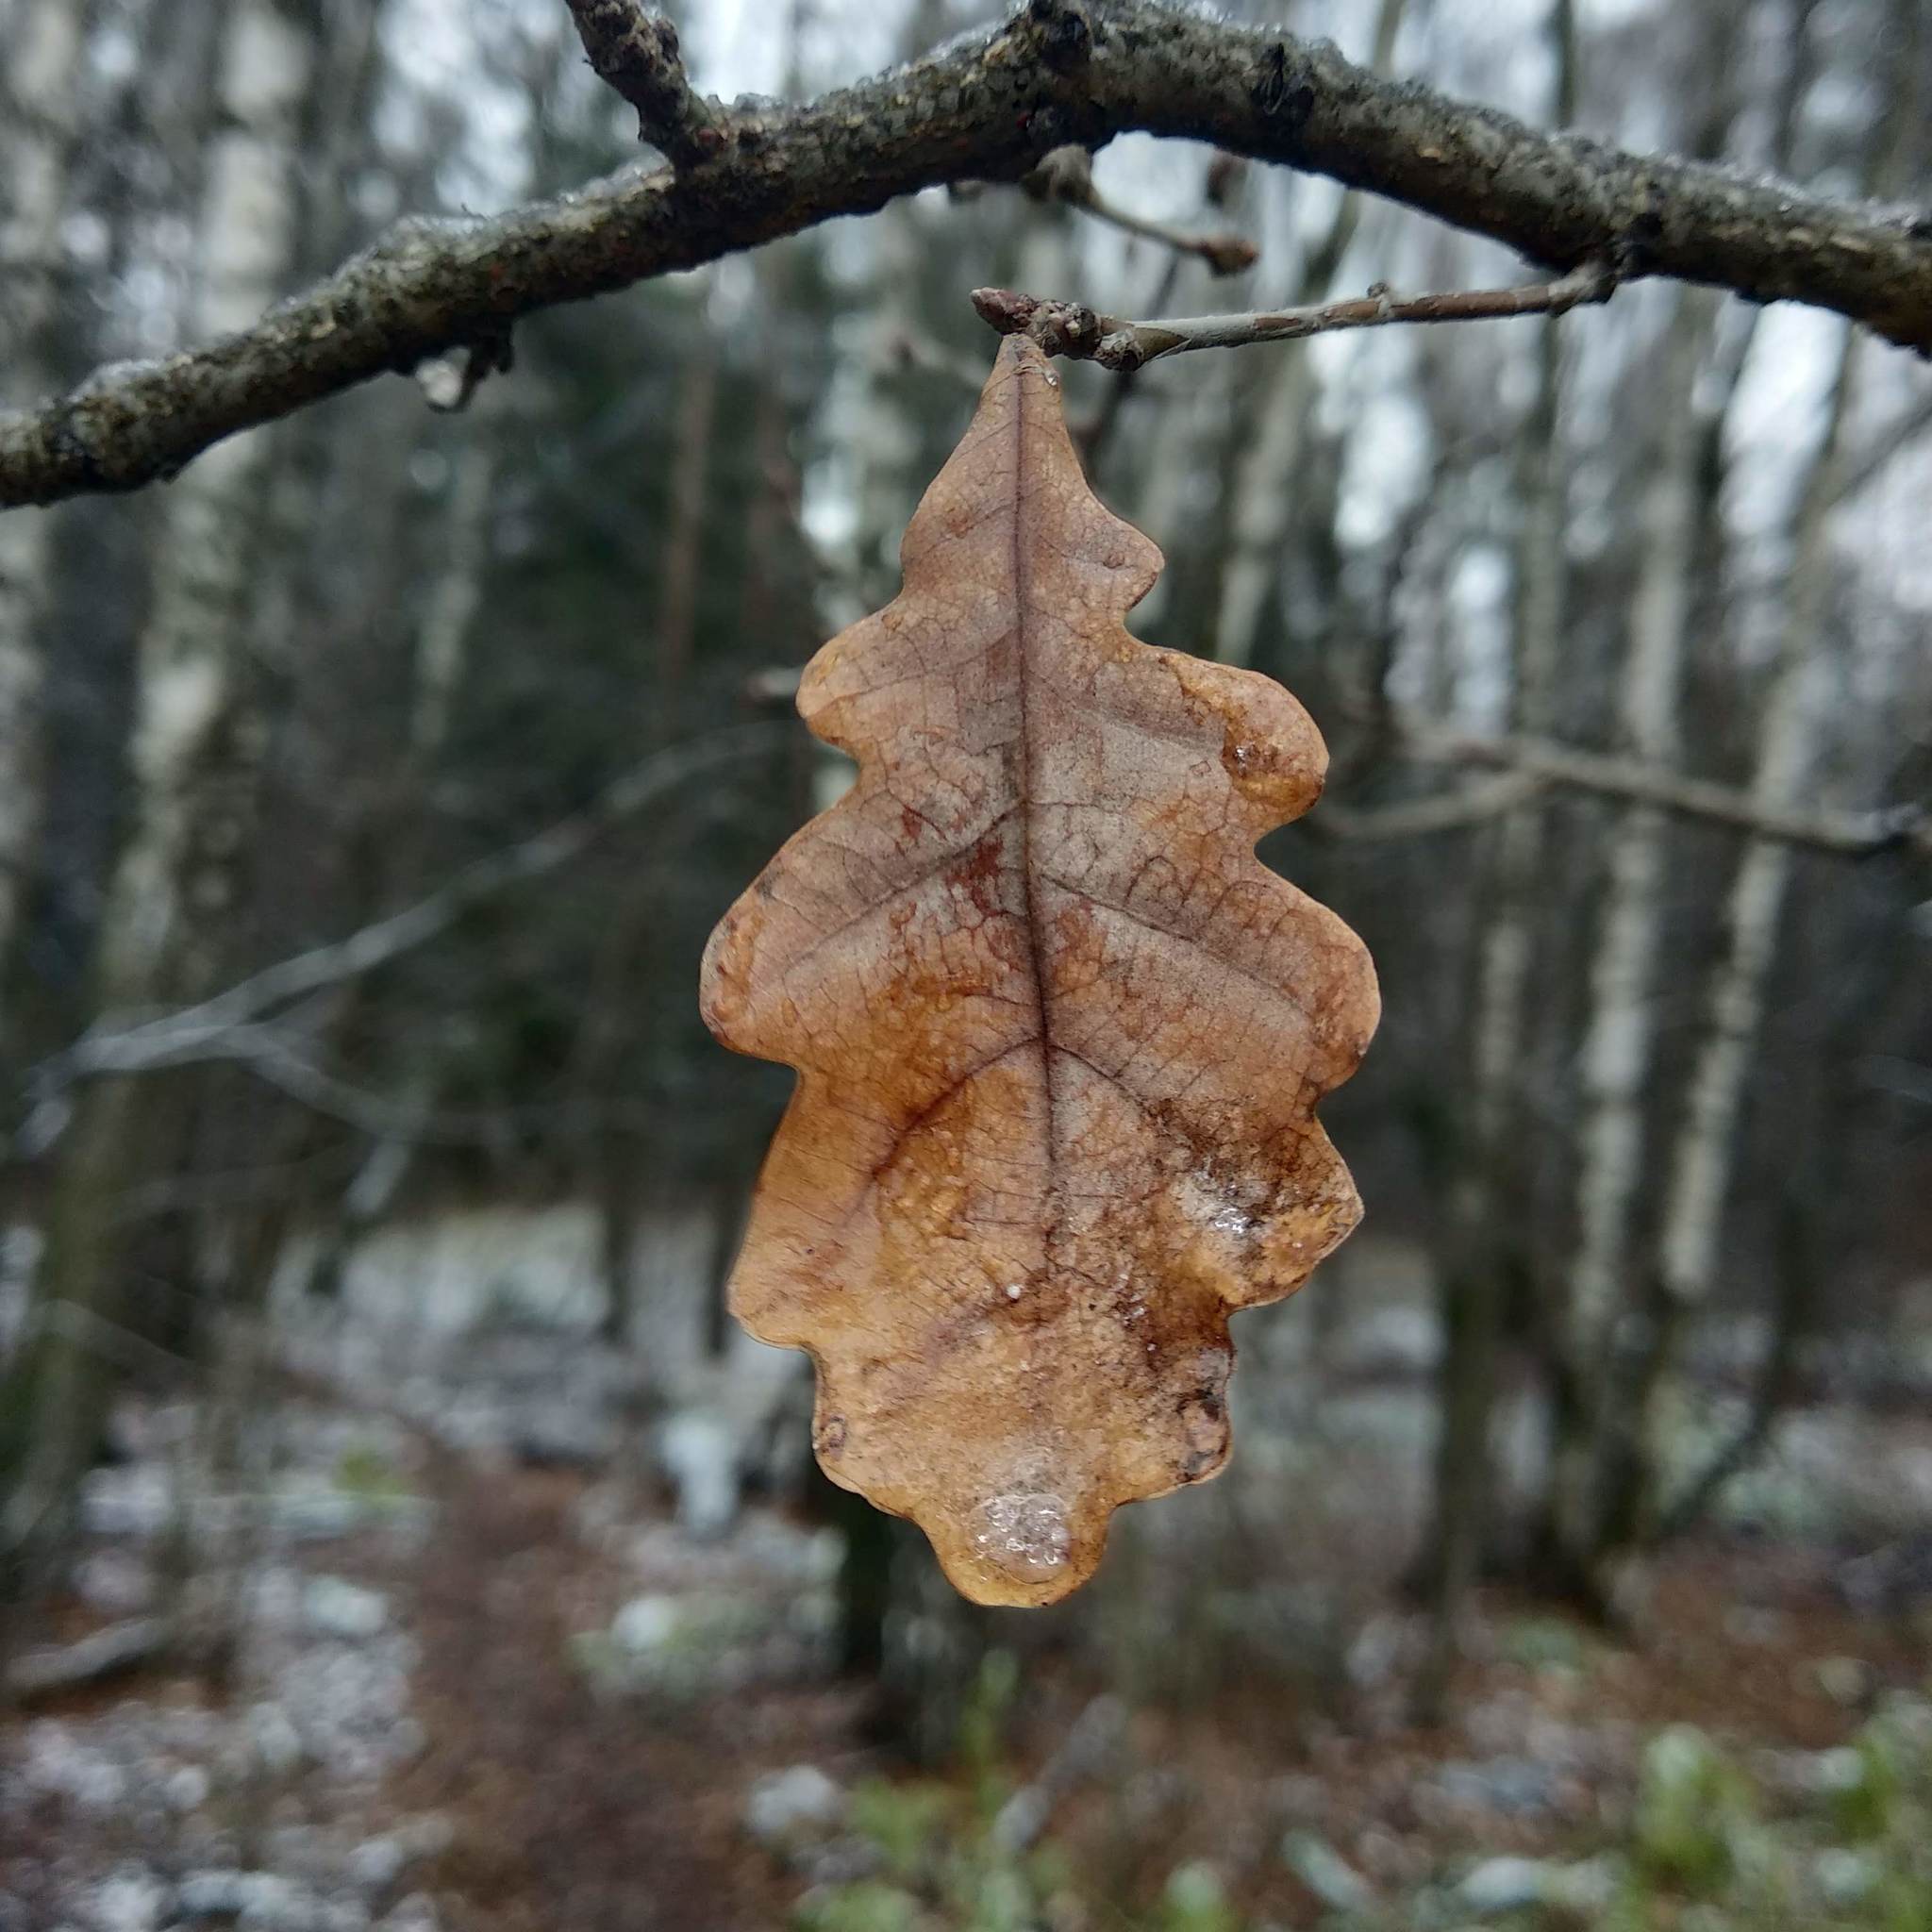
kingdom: Plantae
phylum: Tracheophyta
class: Magnoliopsida
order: Fagales
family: Fagaceae
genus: Quercus
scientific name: Quercus robur
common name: Pedunculate oak
